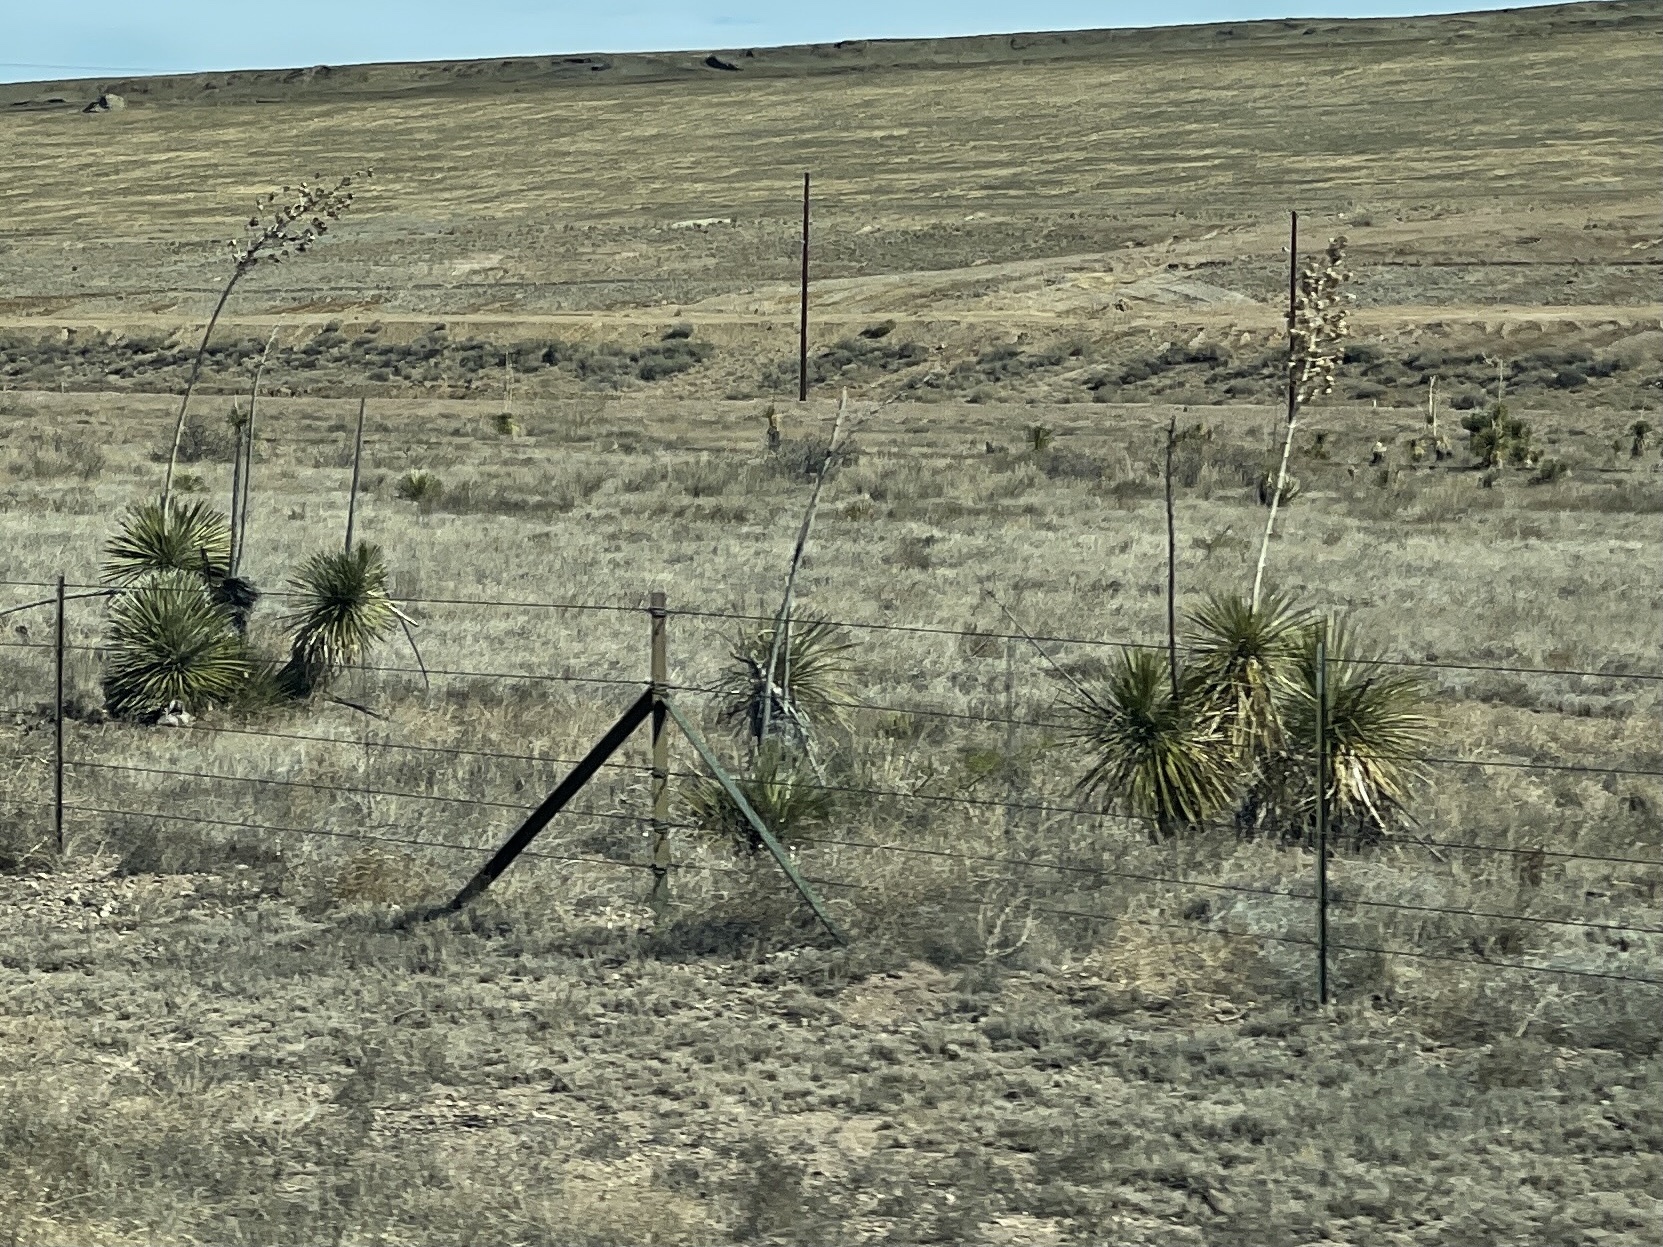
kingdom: Plantae
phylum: Tracheophyta
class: Liliopsida
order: Asparagales
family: Asparagaceae
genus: Yucca
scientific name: Yucca elata
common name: Palmella
